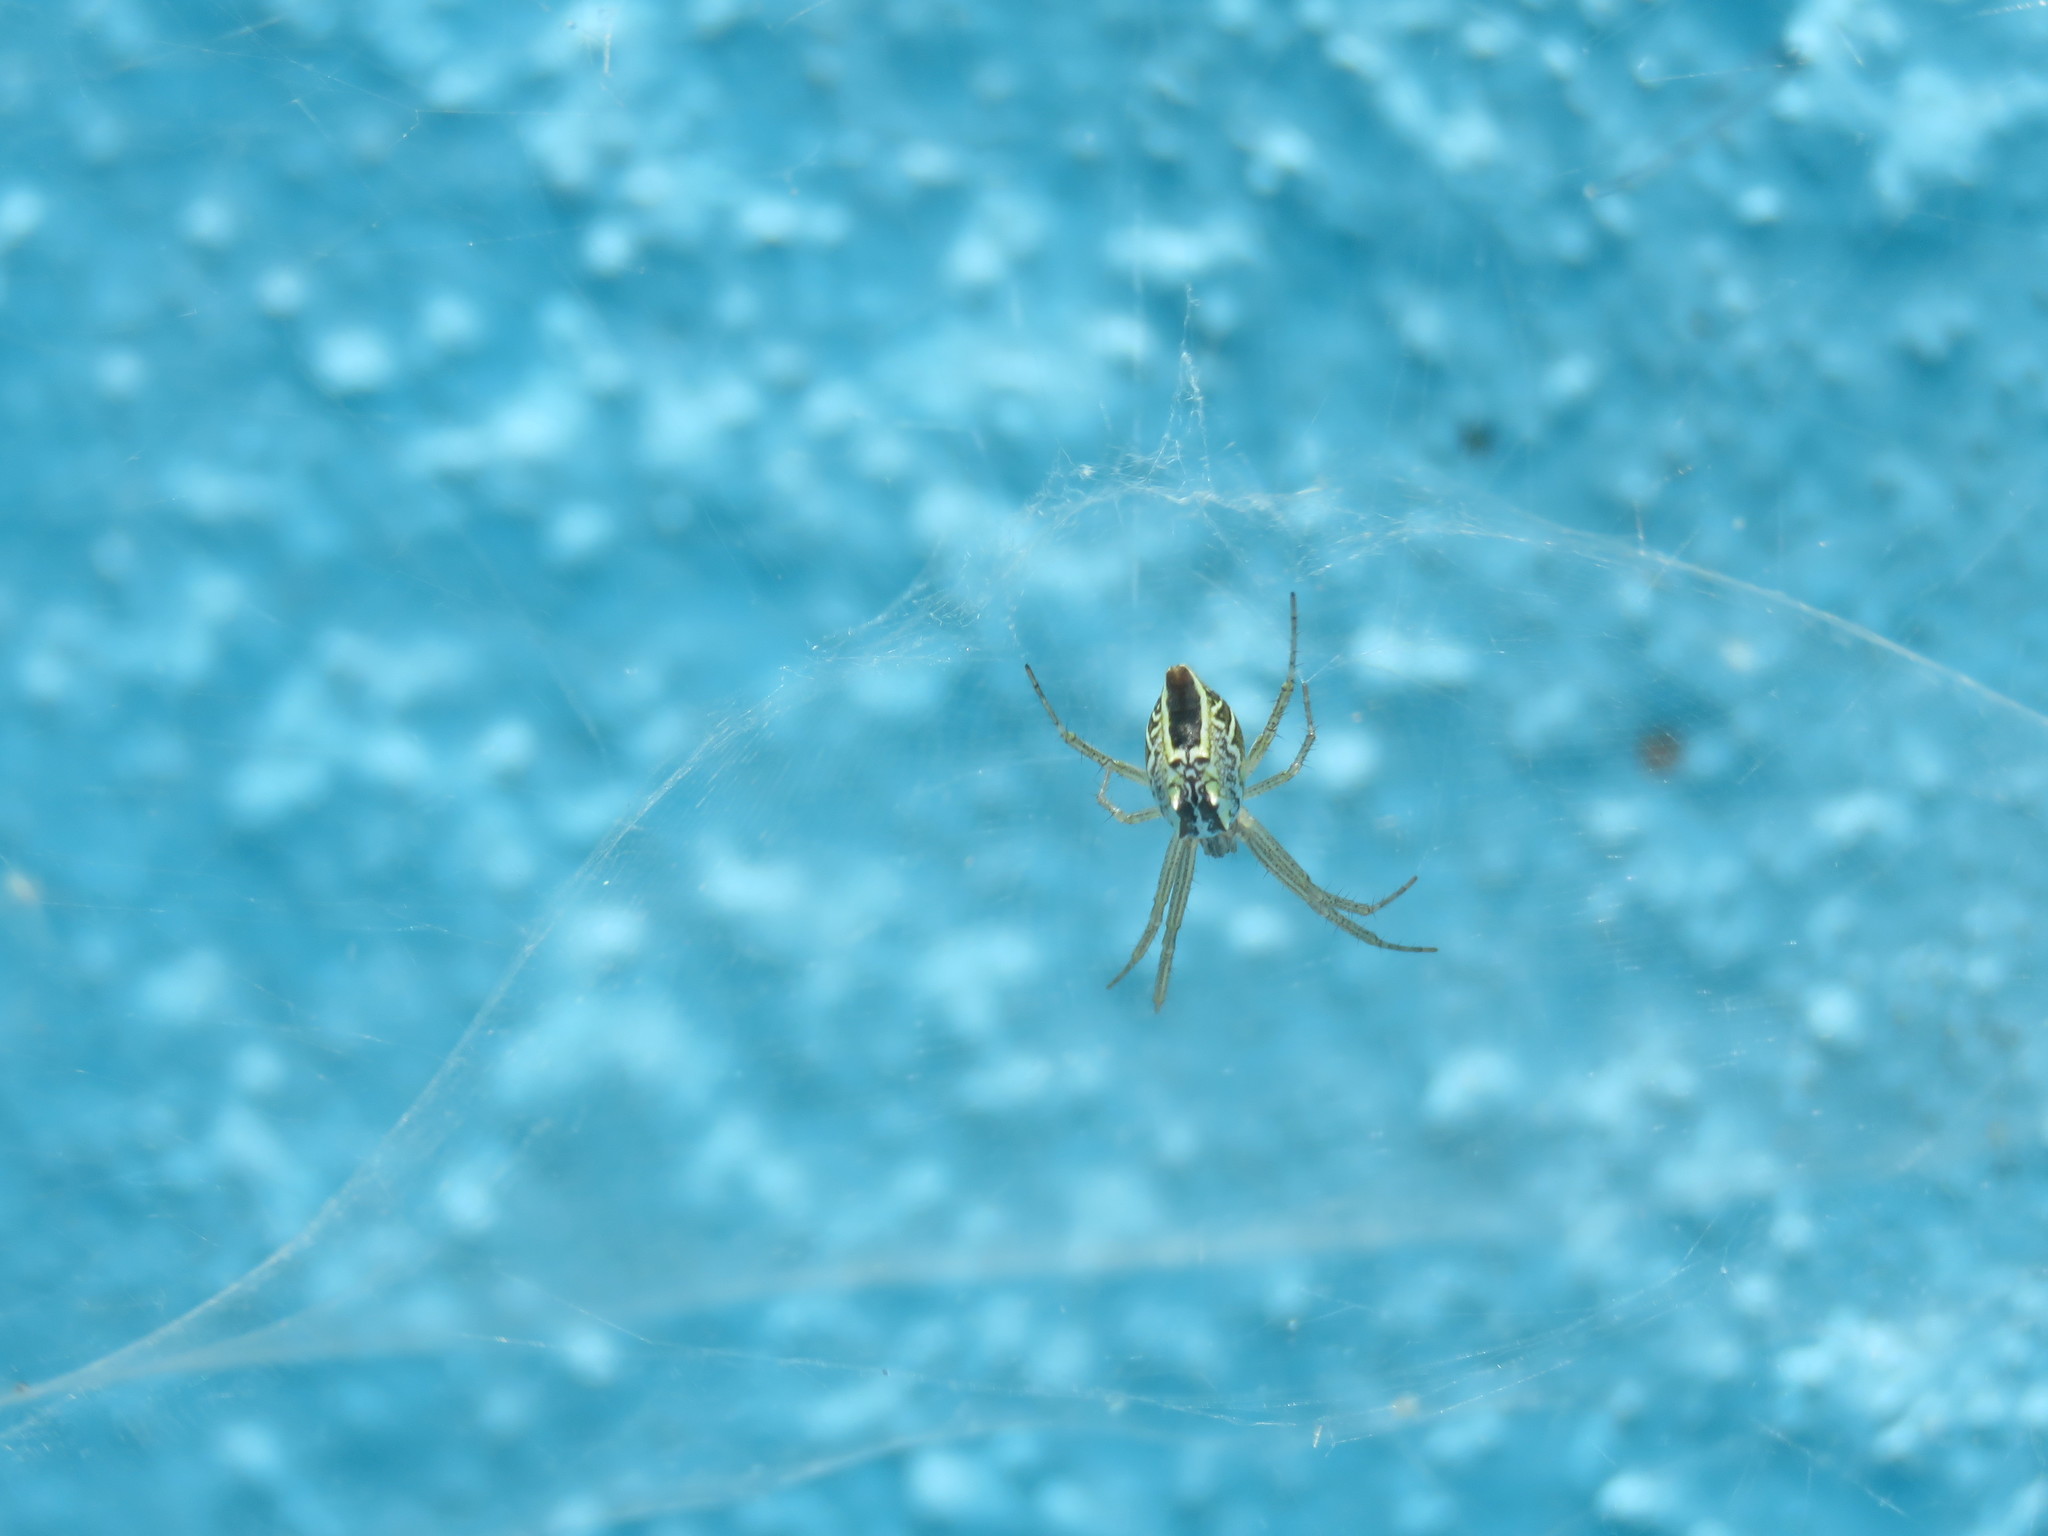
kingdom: Animalia
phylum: Arthropoda
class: Arachnida
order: Araneae
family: Araneidae
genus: Cyrtophora
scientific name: Cyrtophora cicatrosa
